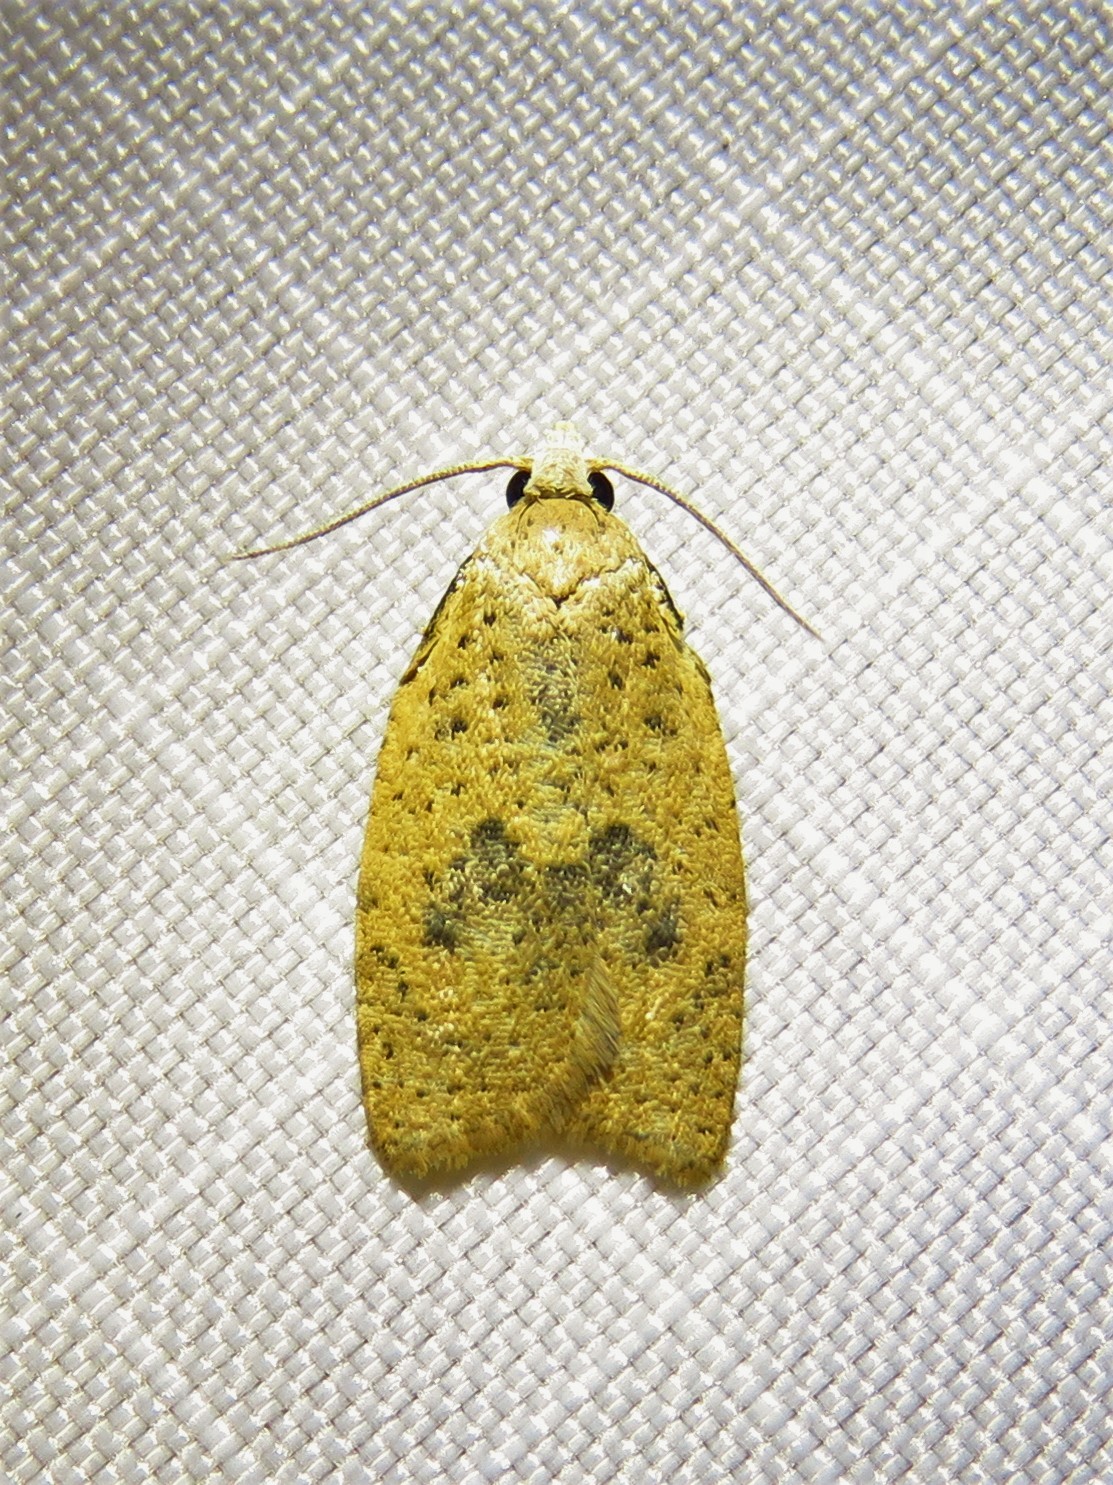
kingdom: Animalia
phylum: Arthropoda
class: Insecta
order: Lepidoptera
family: Tortricidae
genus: Sparganothoides
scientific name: Sparganothoides lentiginosana
